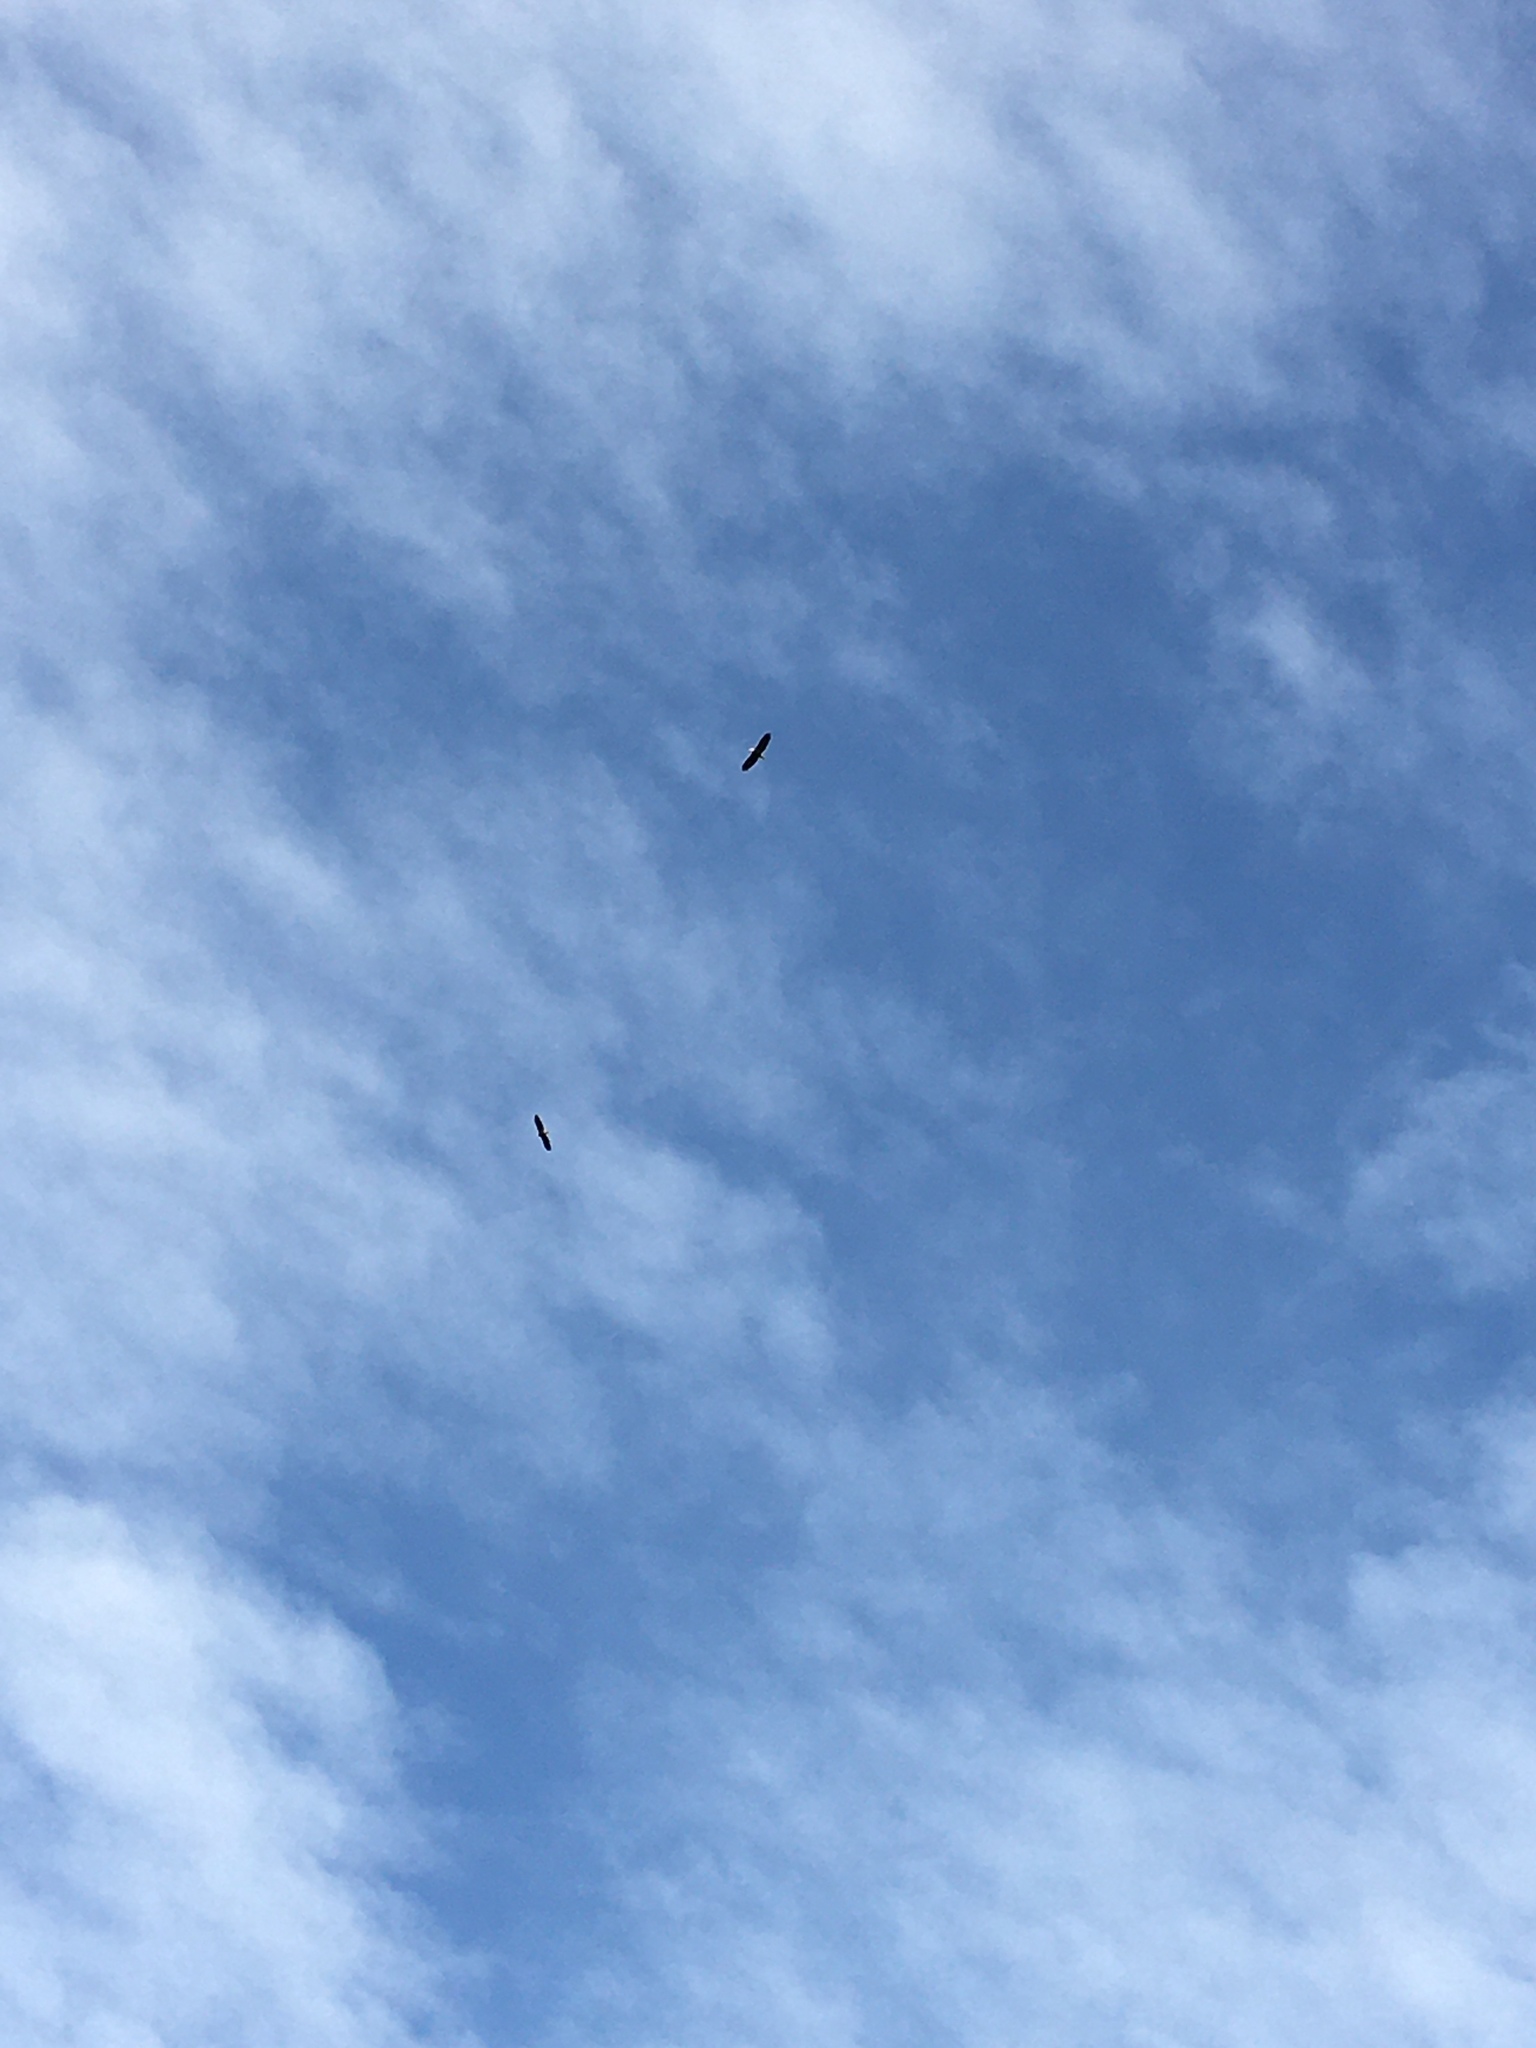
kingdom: Animalia
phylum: Chordata
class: Aves
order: Accipitriformes
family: Accipitridae
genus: Haliaeetus
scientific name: Haliaeetus leucocephalus
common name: Bald eagle
